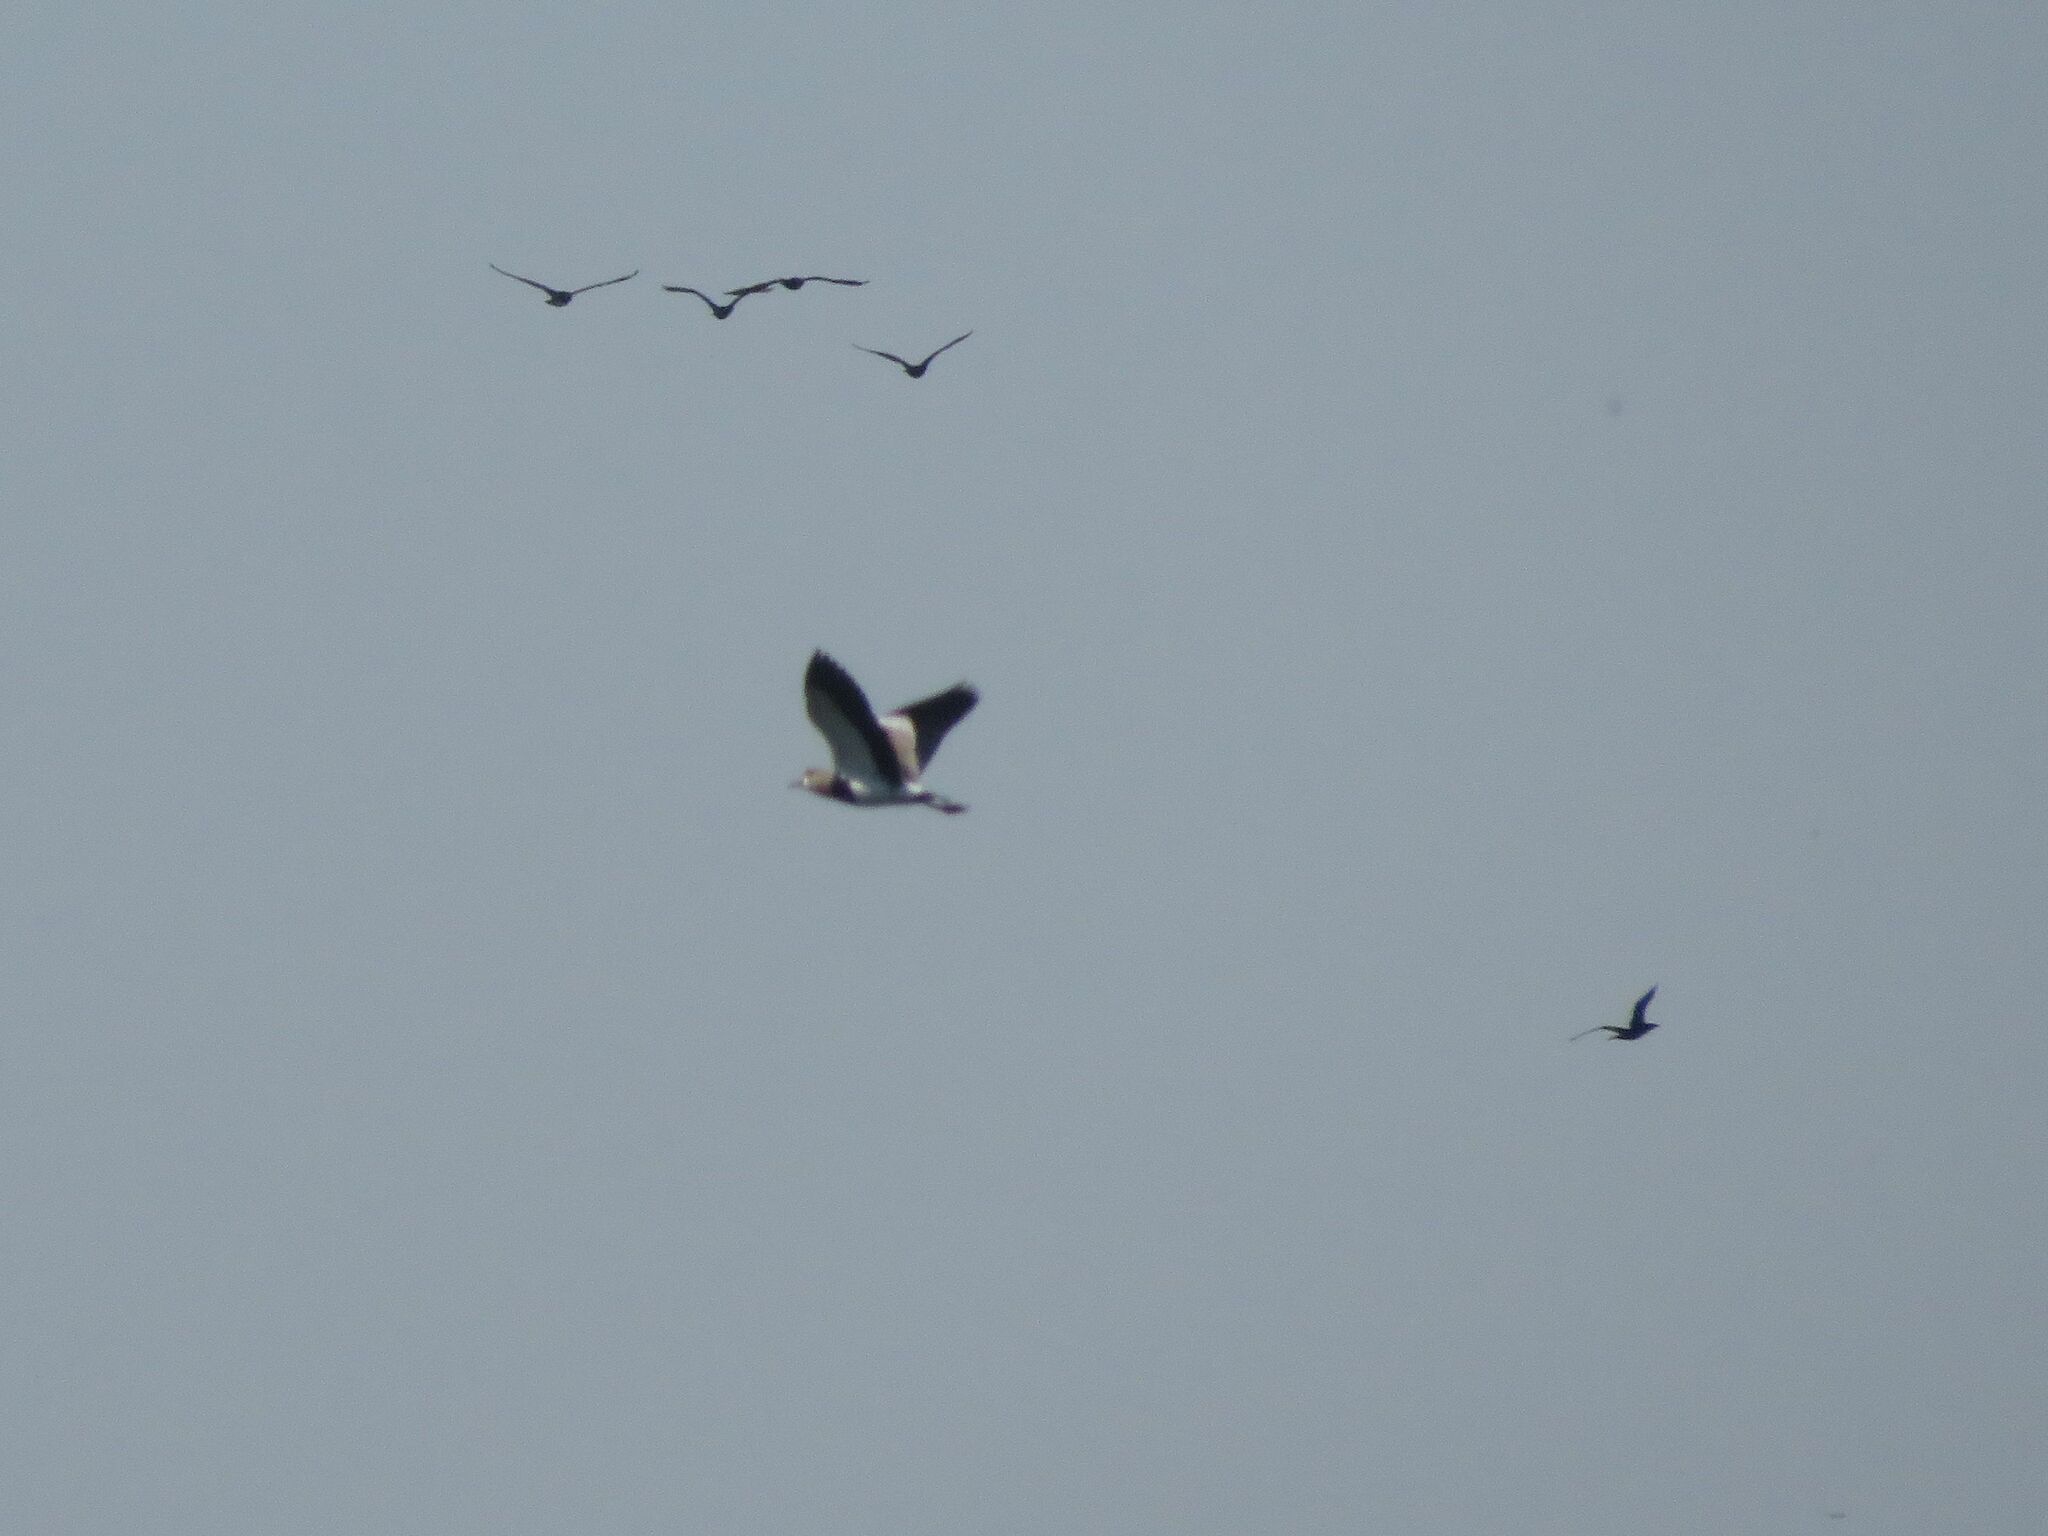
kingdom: Animalia
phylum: Chordata
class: Aves
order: Charadriiformes
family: Charadriidae
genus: Vanellus
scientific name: Vanellus chilensis
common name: Southern lapwing
